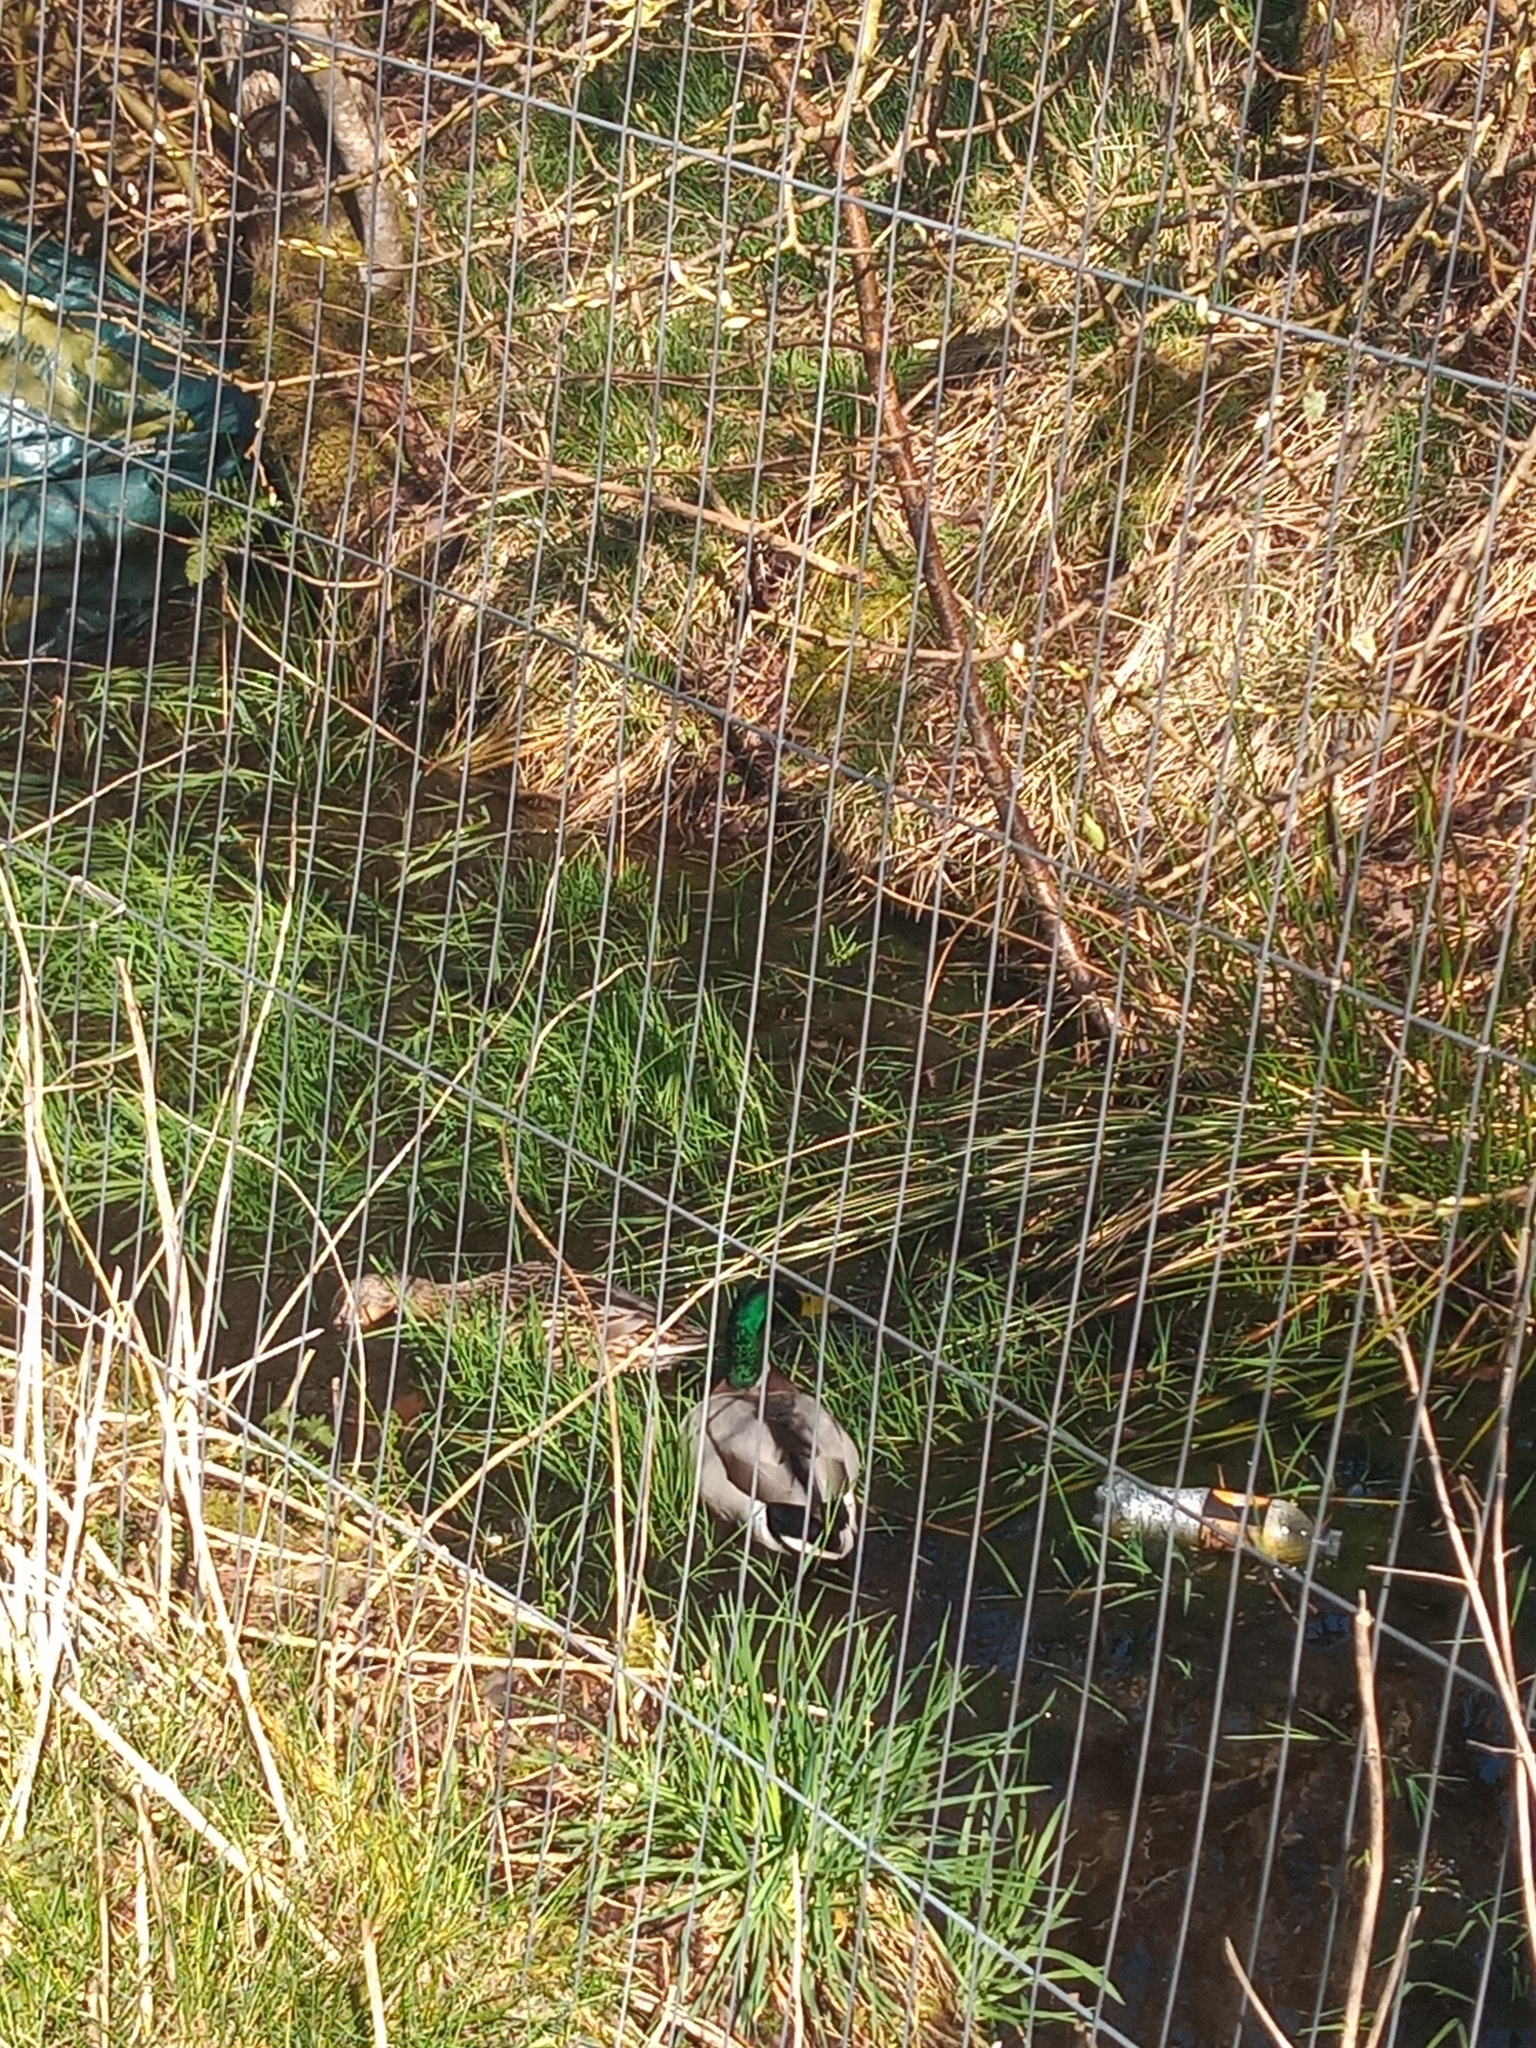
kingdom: Animalia
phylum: Chordata
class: Aves
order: Anseriformes
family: Anatidae
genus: Anas
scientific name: Anas platyrhynchos
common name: Mallard
